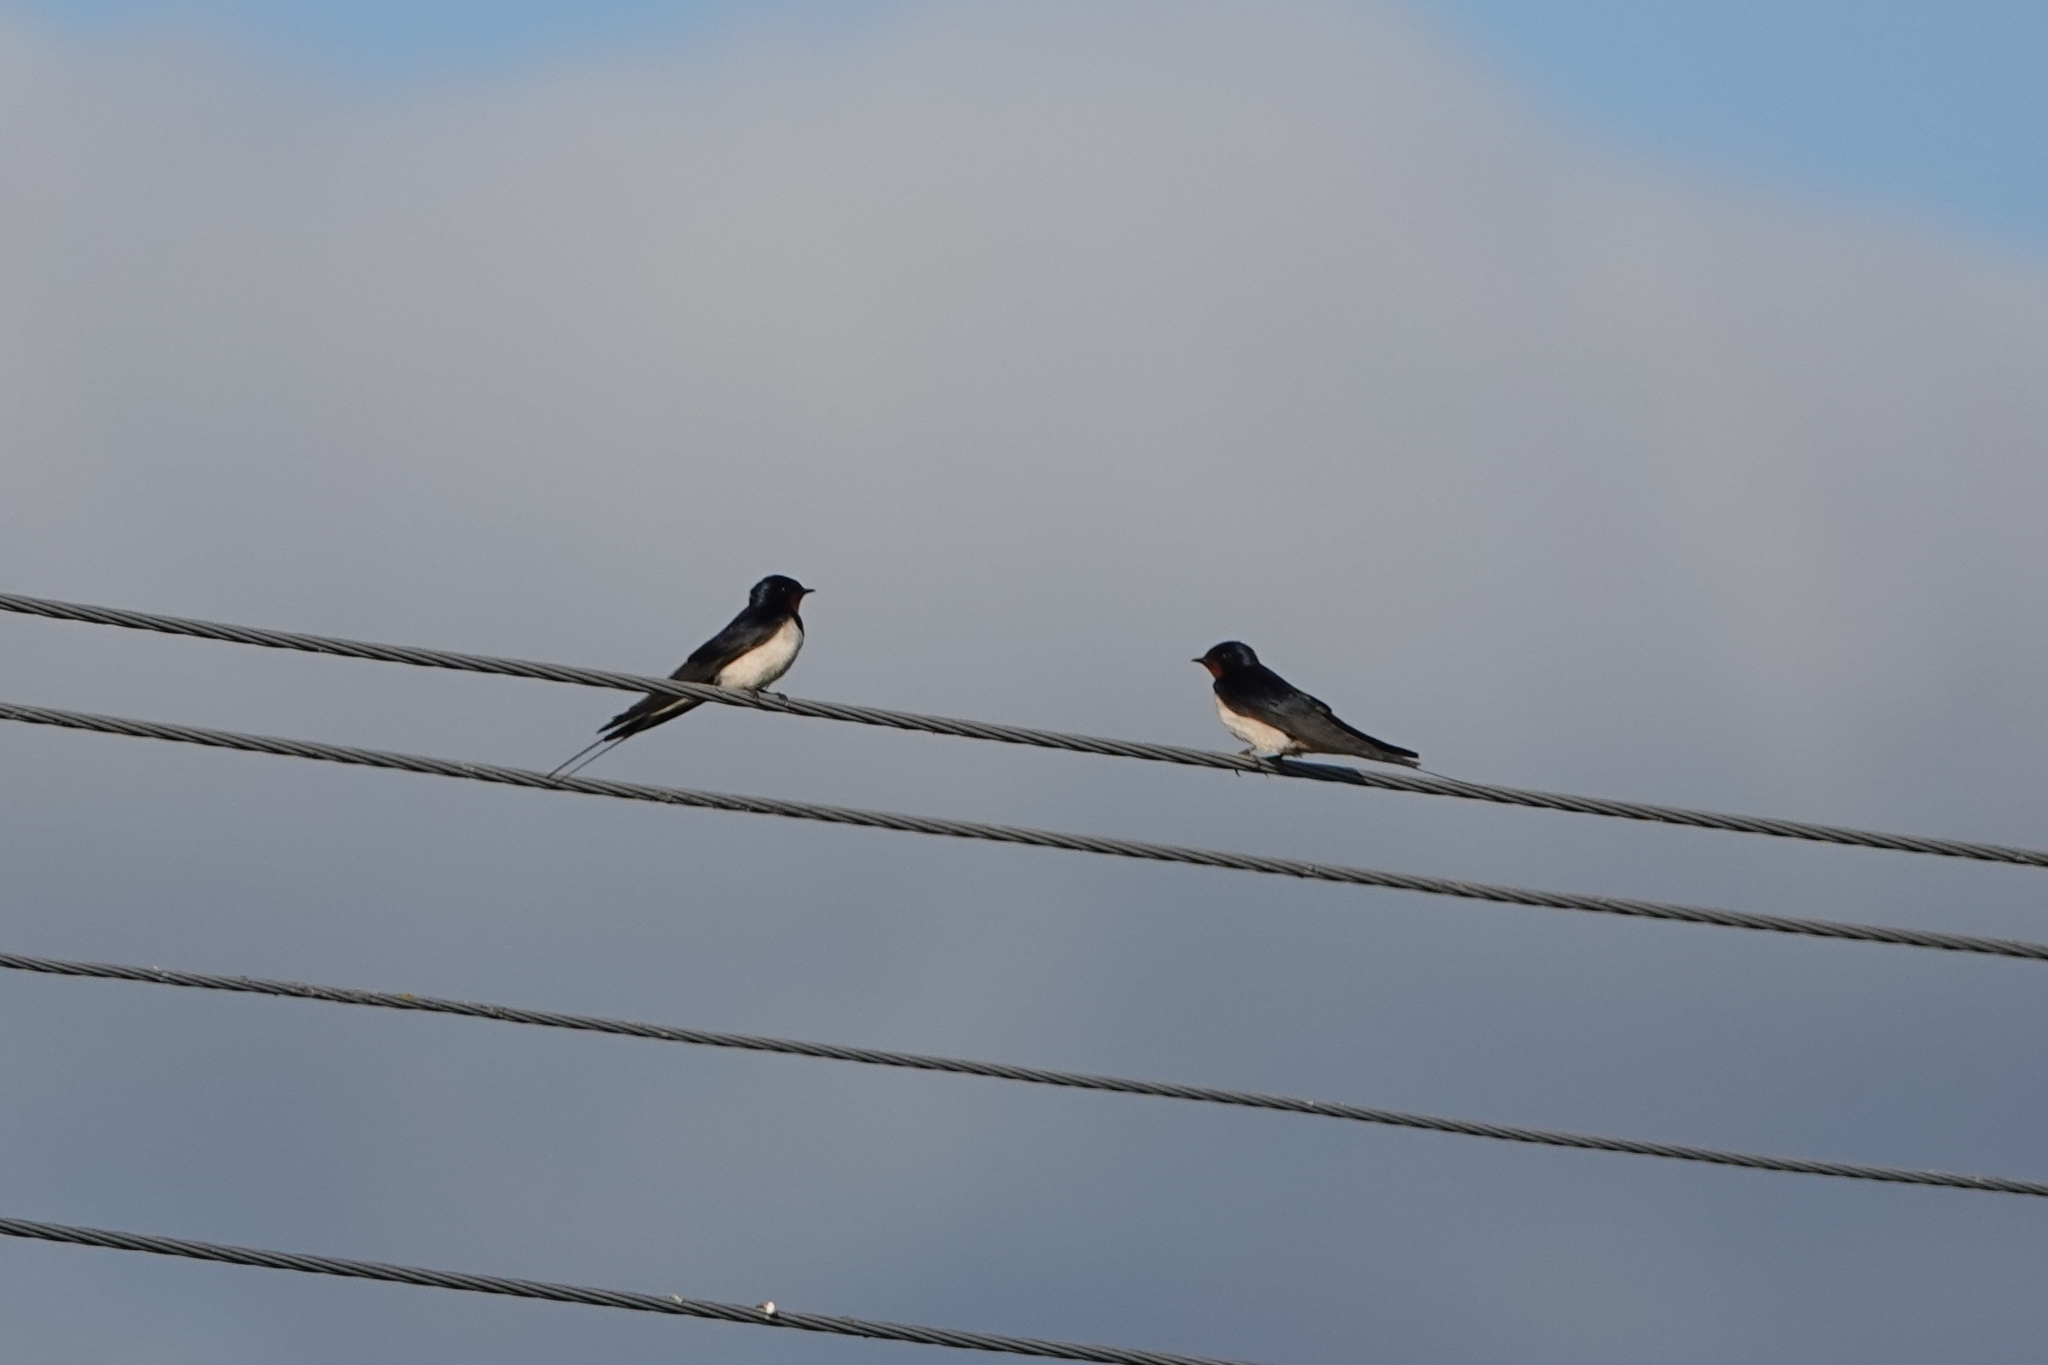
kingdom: Animalia
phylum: Chordata
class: Aves
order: Passeriformes
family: Hirundinidae
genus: Hirundo
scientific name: Hirundo rustica
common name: Barn swallow
